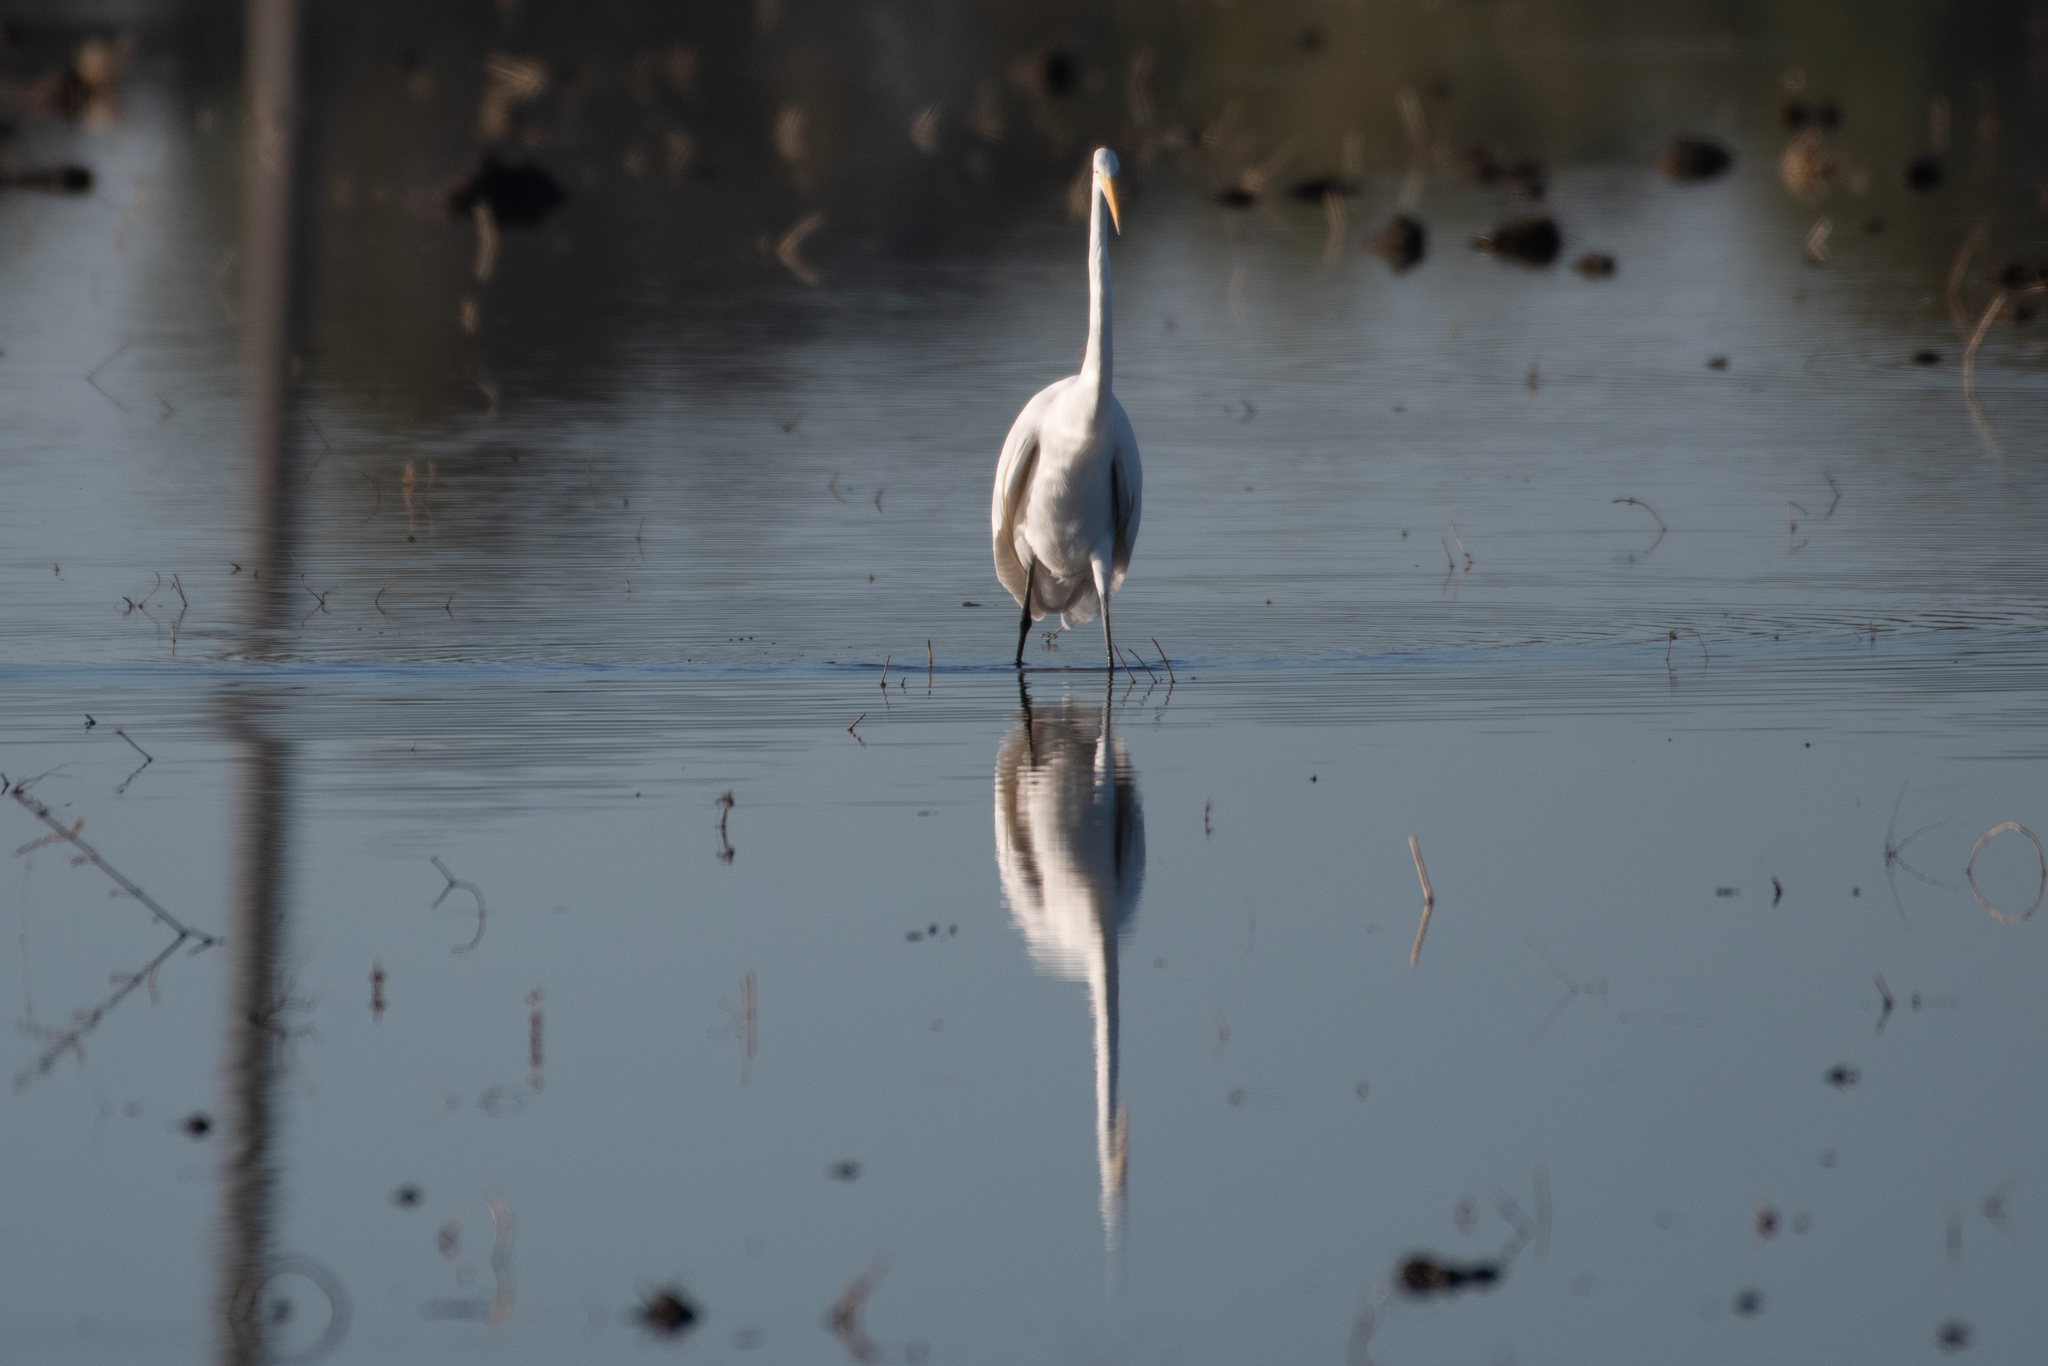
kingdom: Animalia
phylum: Chordata
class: Aves
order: Pelecaniformes
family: Ardeidae
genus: Ardea
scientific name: Ardea alba
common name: Great egret
